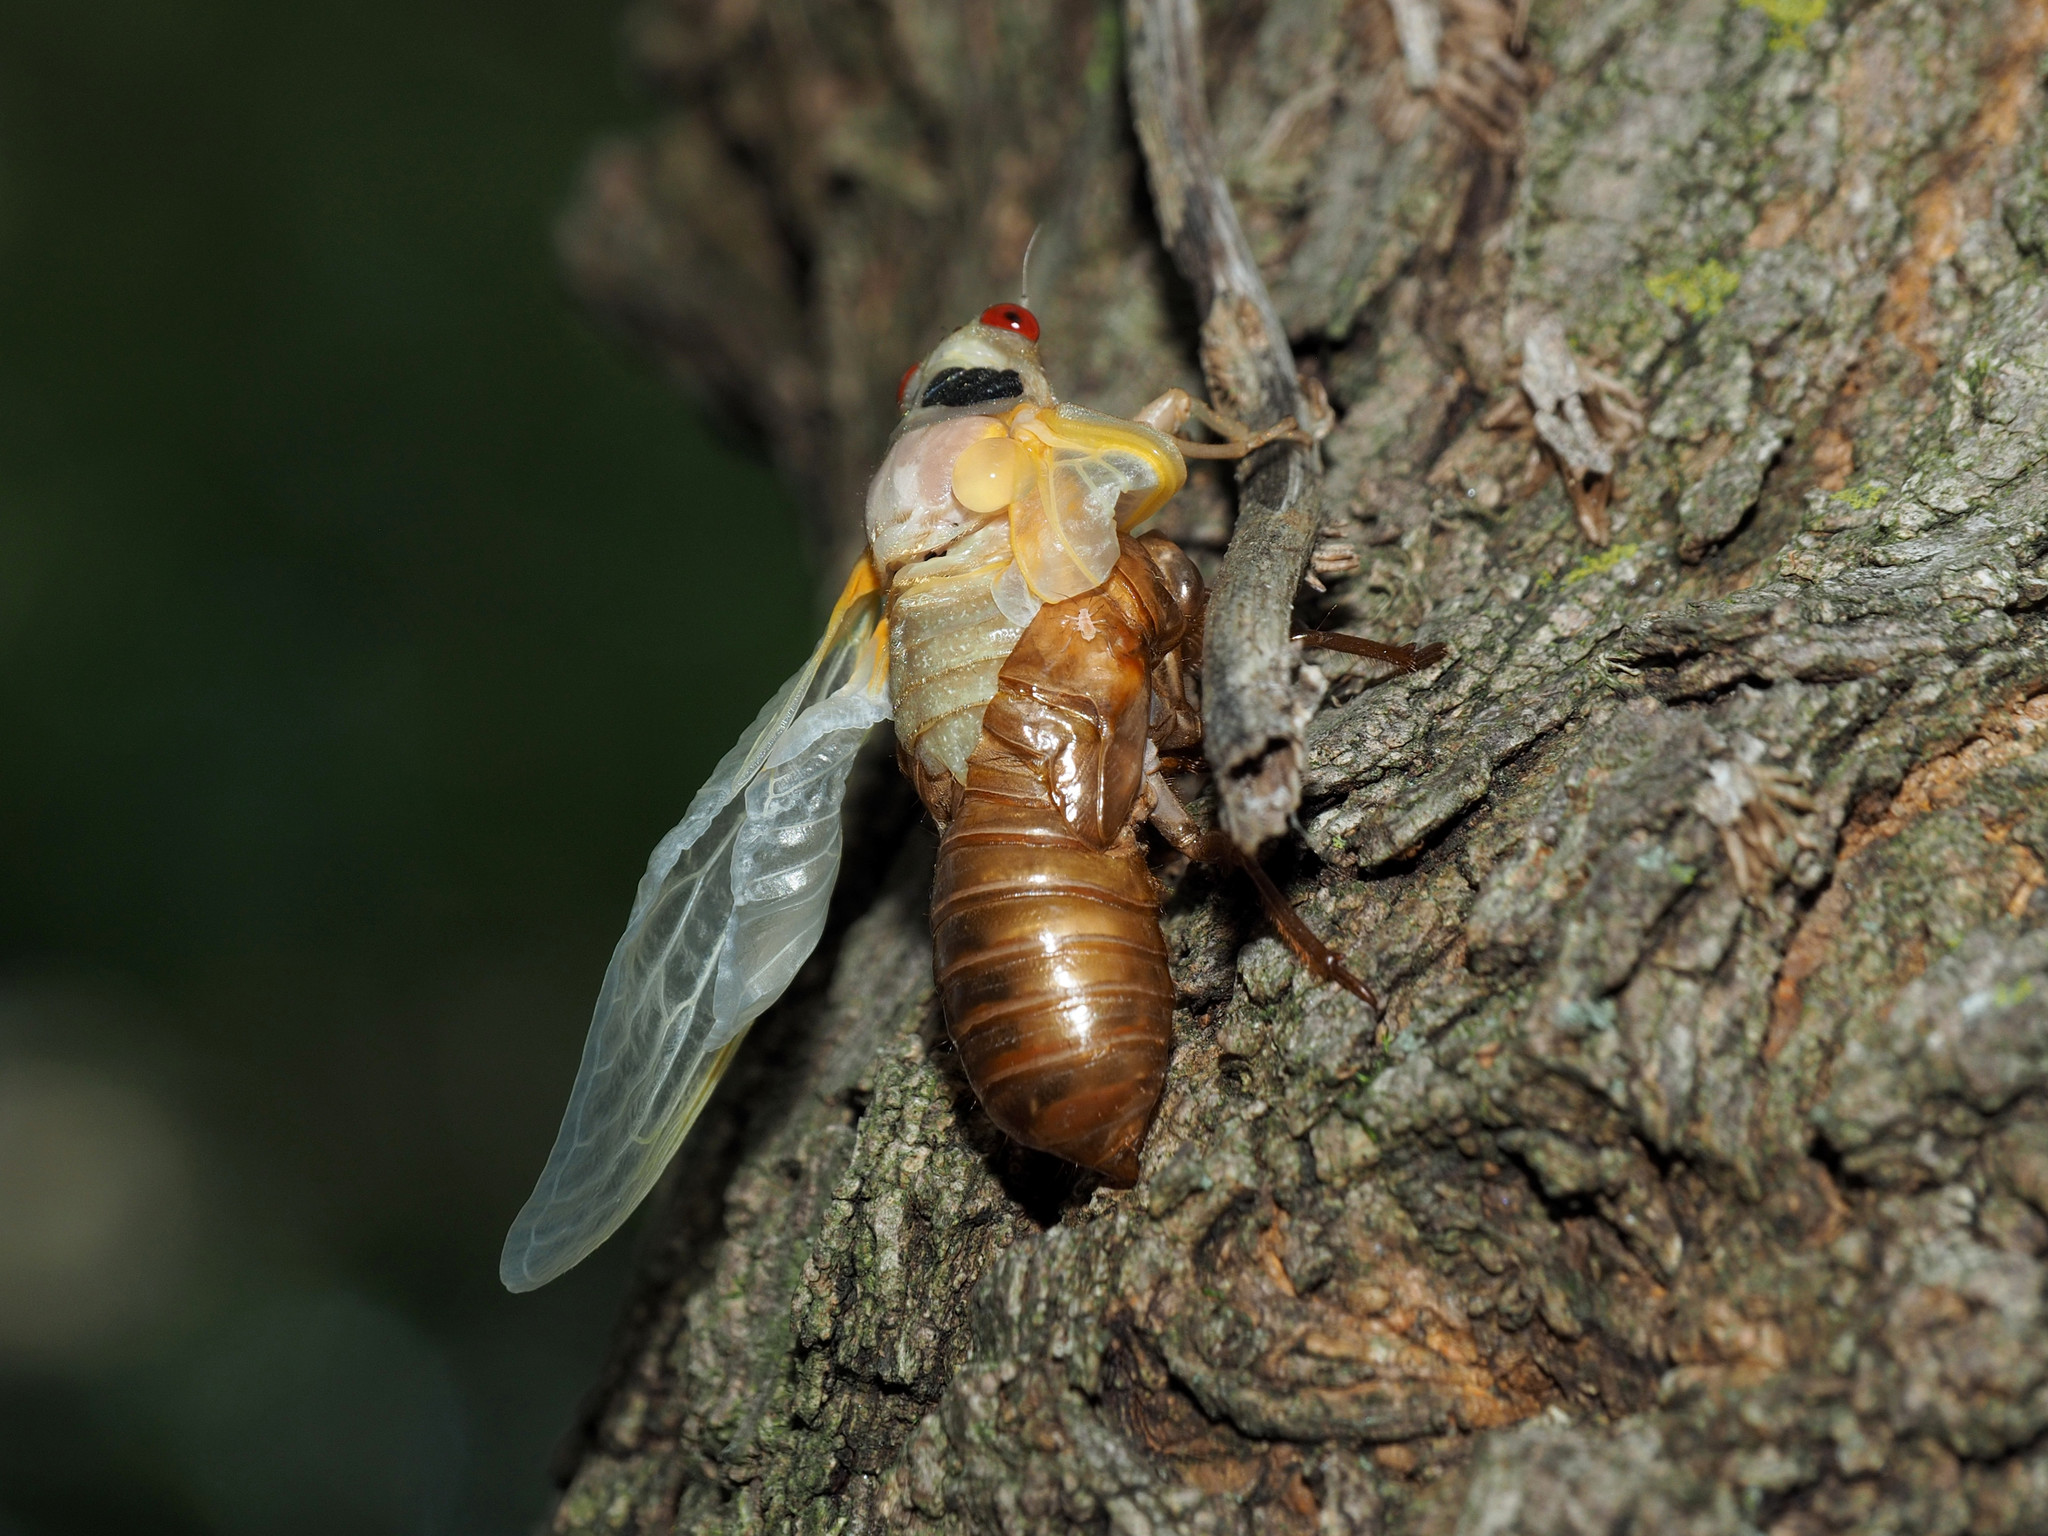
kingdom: Animalia
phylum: Arthropoda
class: Insecta
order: Hemiptera
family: Cicadidae
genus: Magicicada
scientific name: Magicicada
